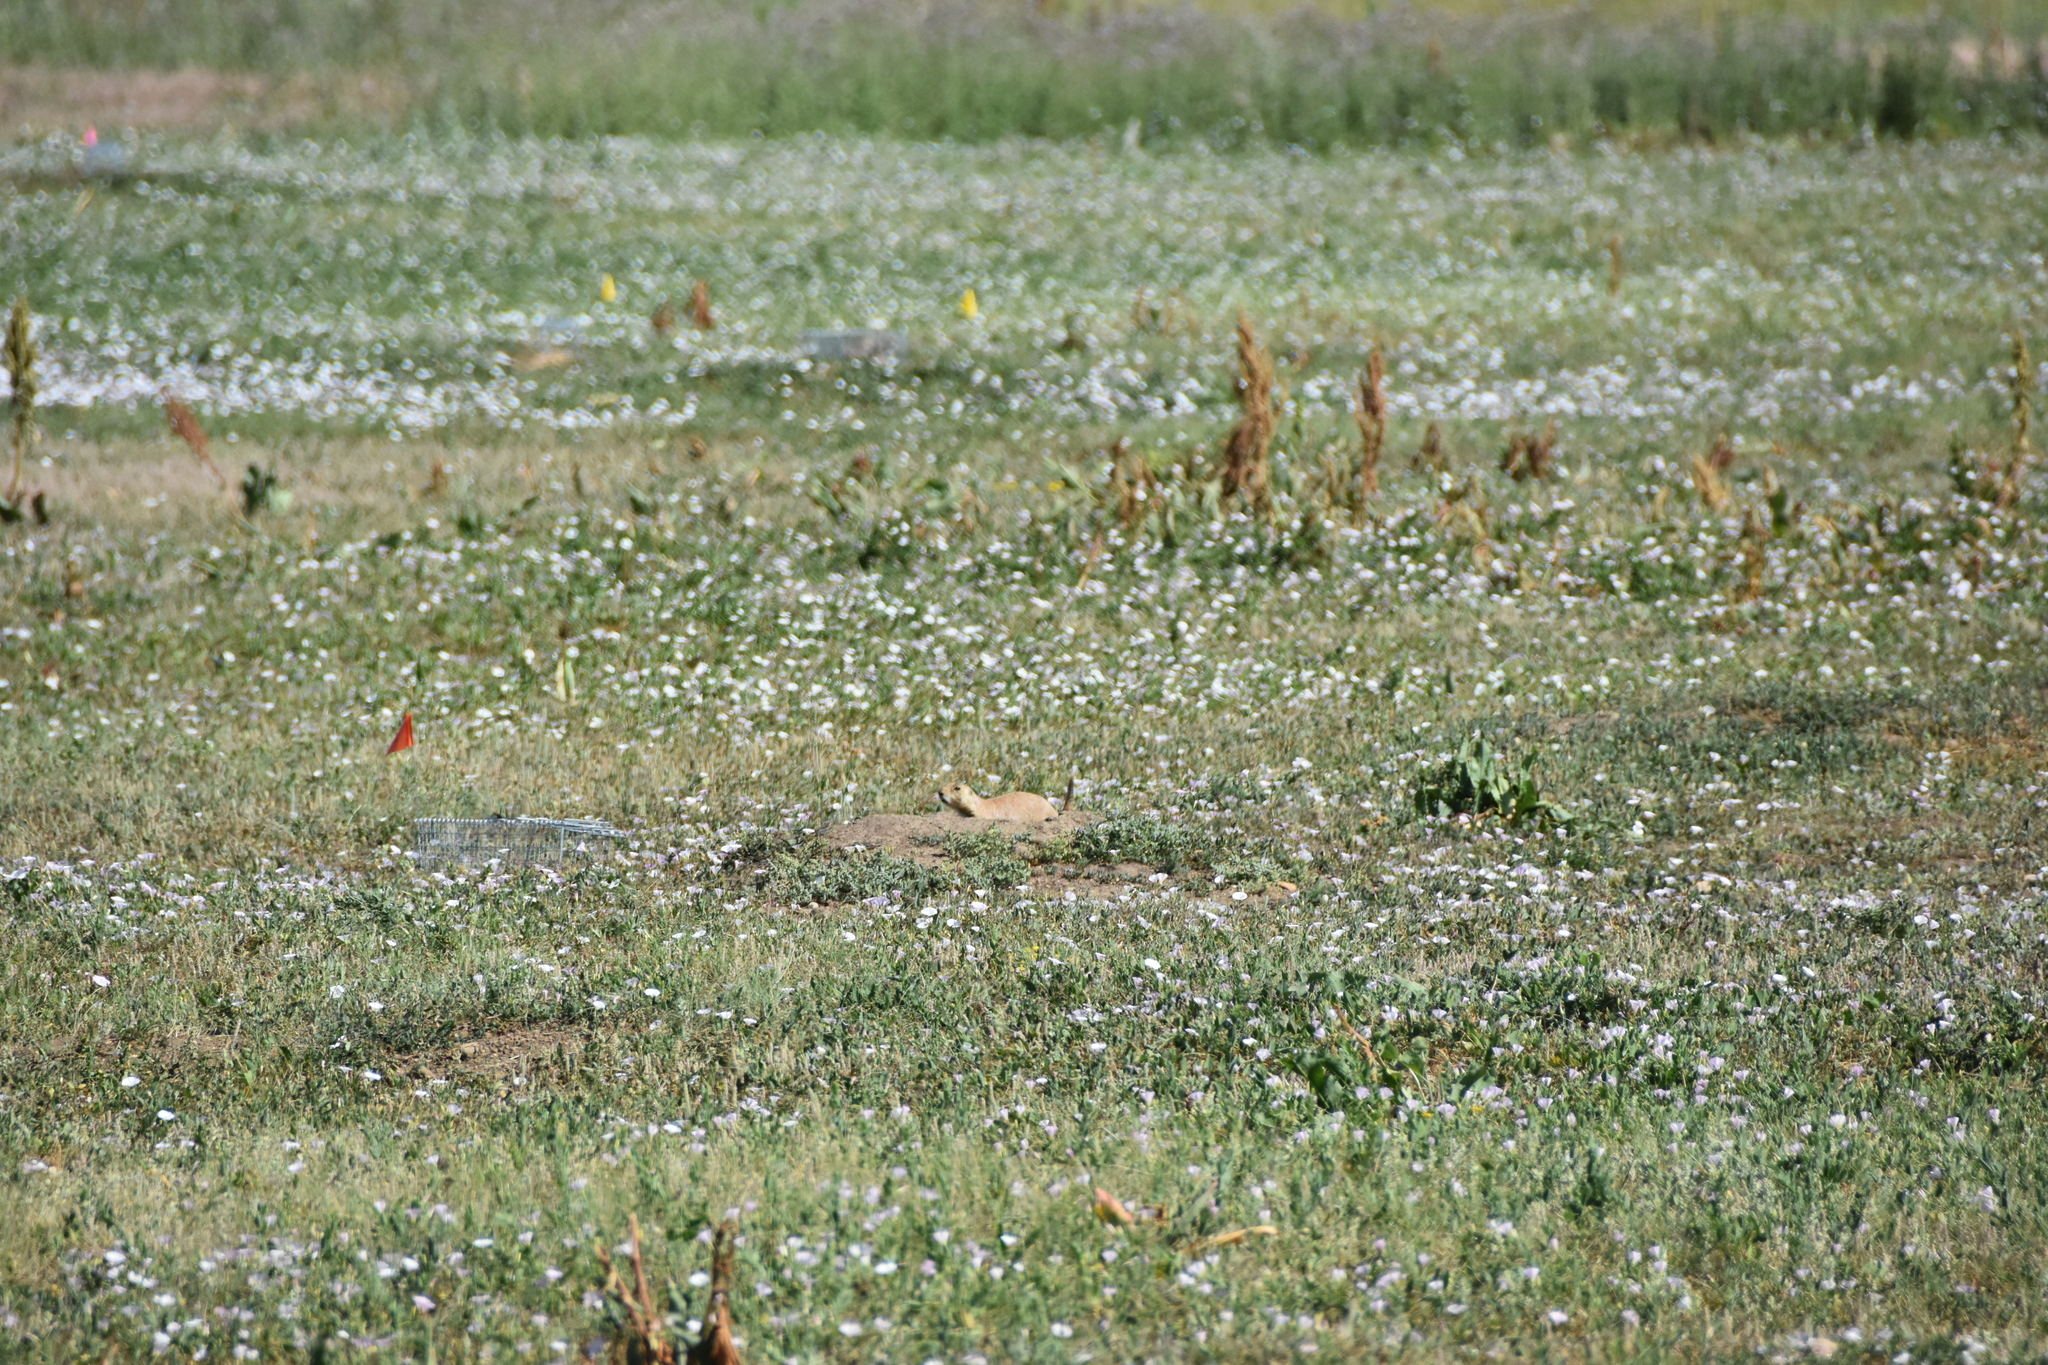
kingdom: Animalia
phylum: Chordata
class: Mammalia
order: Rodentia
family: Sciuridae
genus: Cynomys
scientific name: Cynomys ludovicianus
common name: Black-tailed prairie dog
